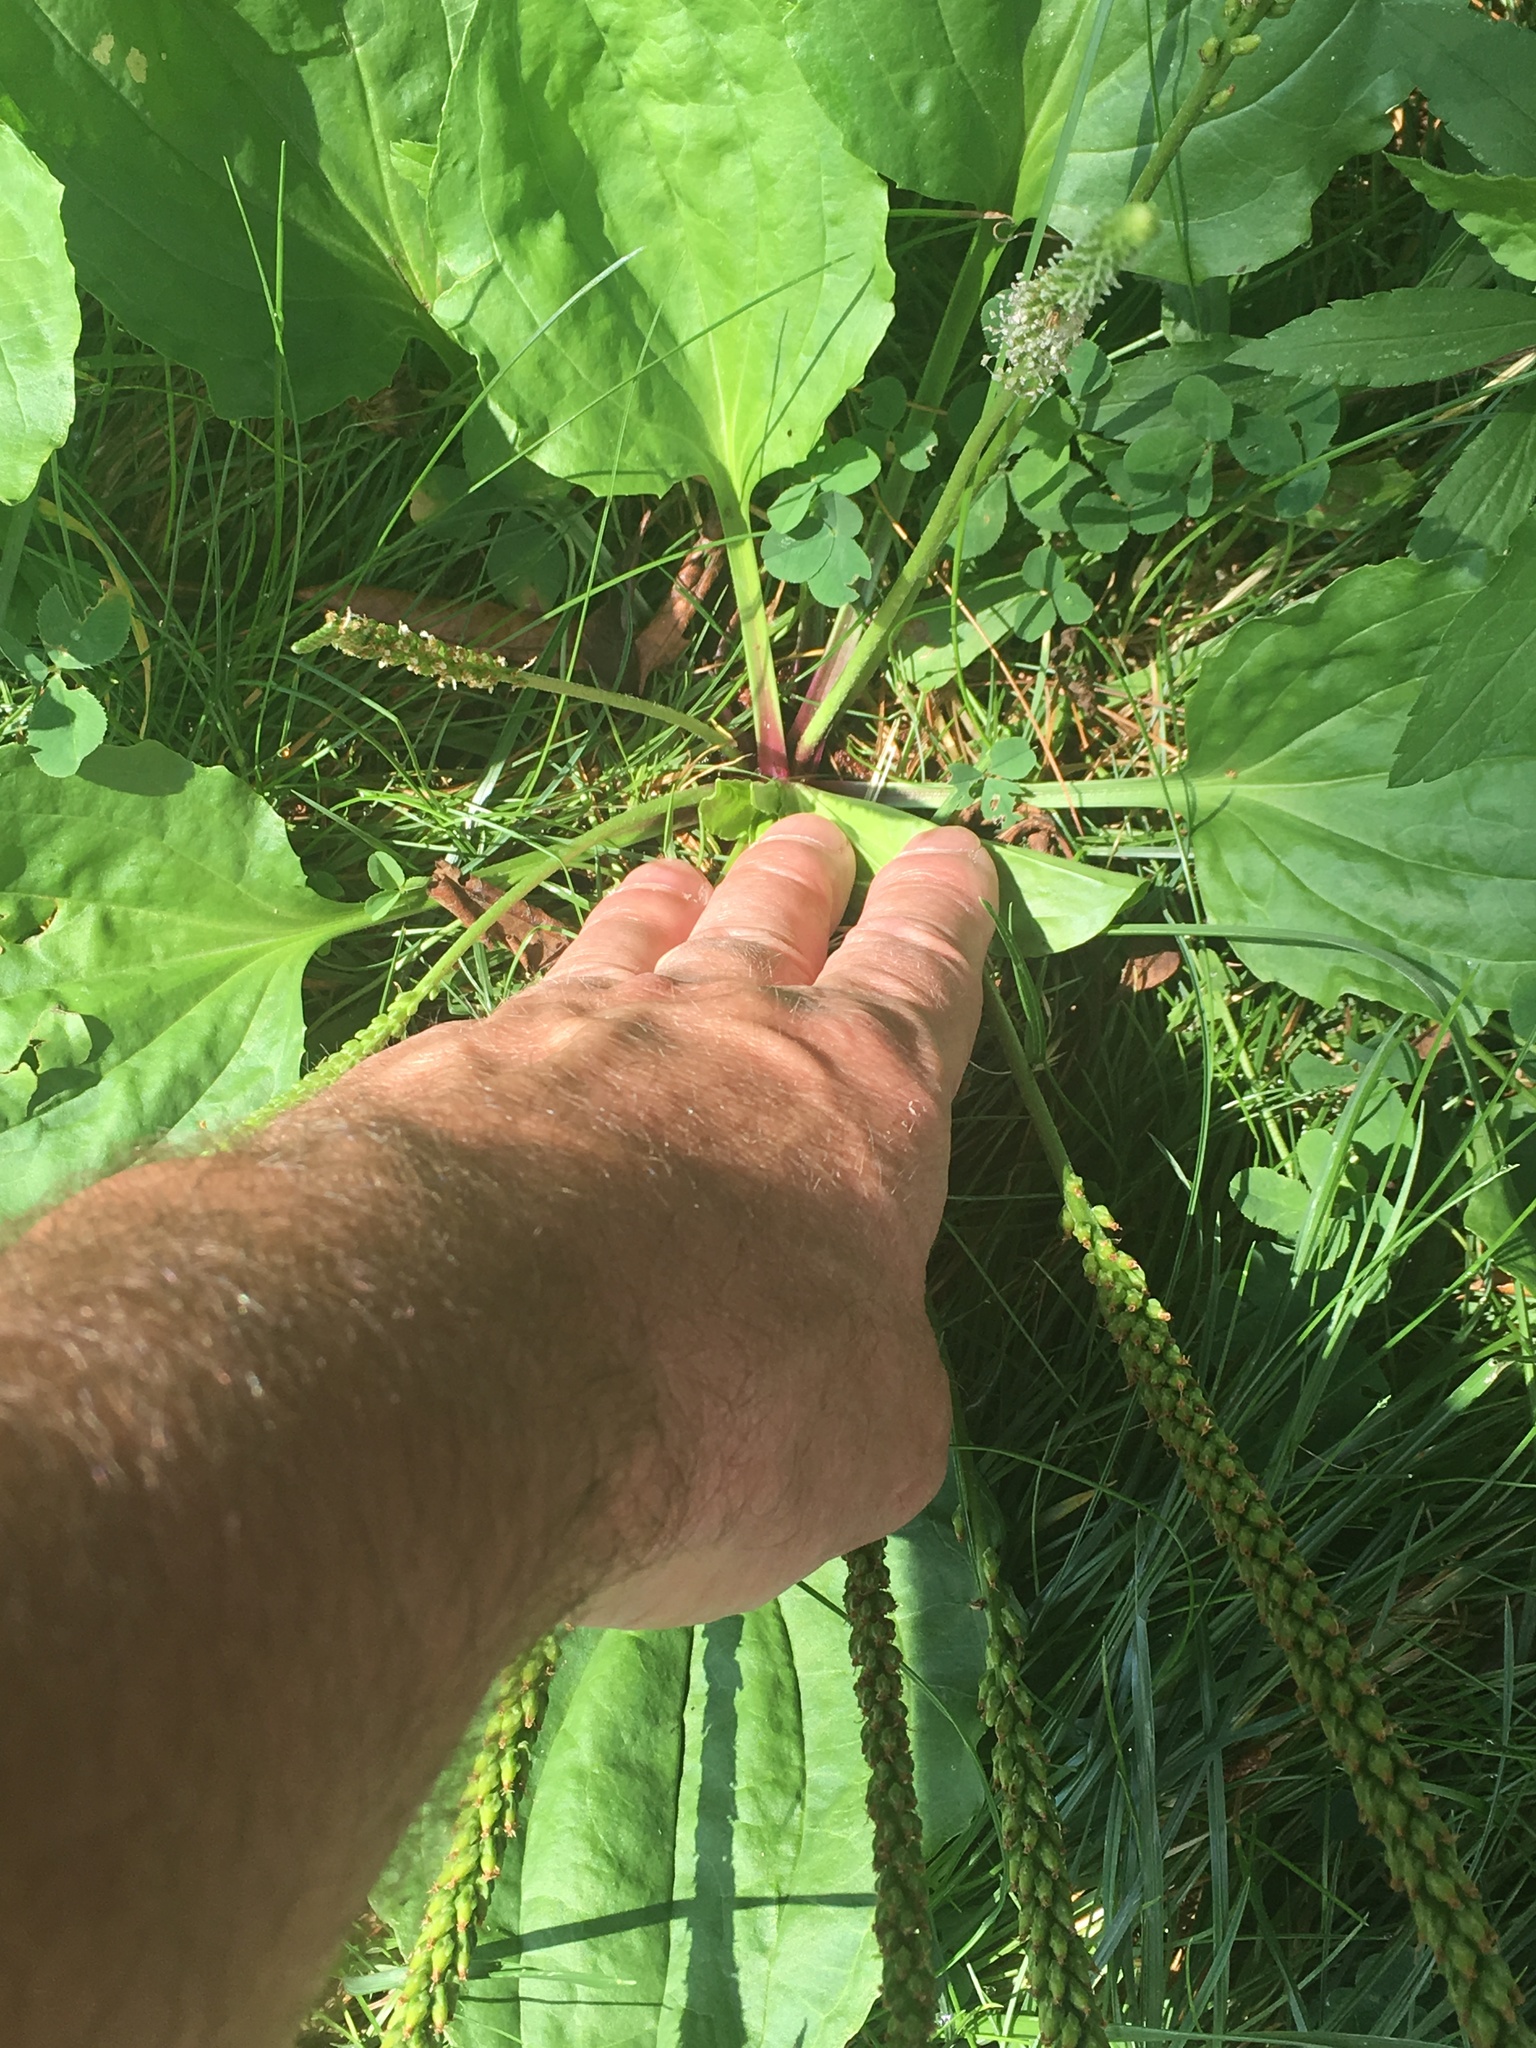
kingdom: Plantae
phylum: Tracheophyta
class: Magnoliopsida
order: Lamiales
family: Plantaginaceae
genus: Plantago
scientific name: Plantago rugelii
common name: American plantain
